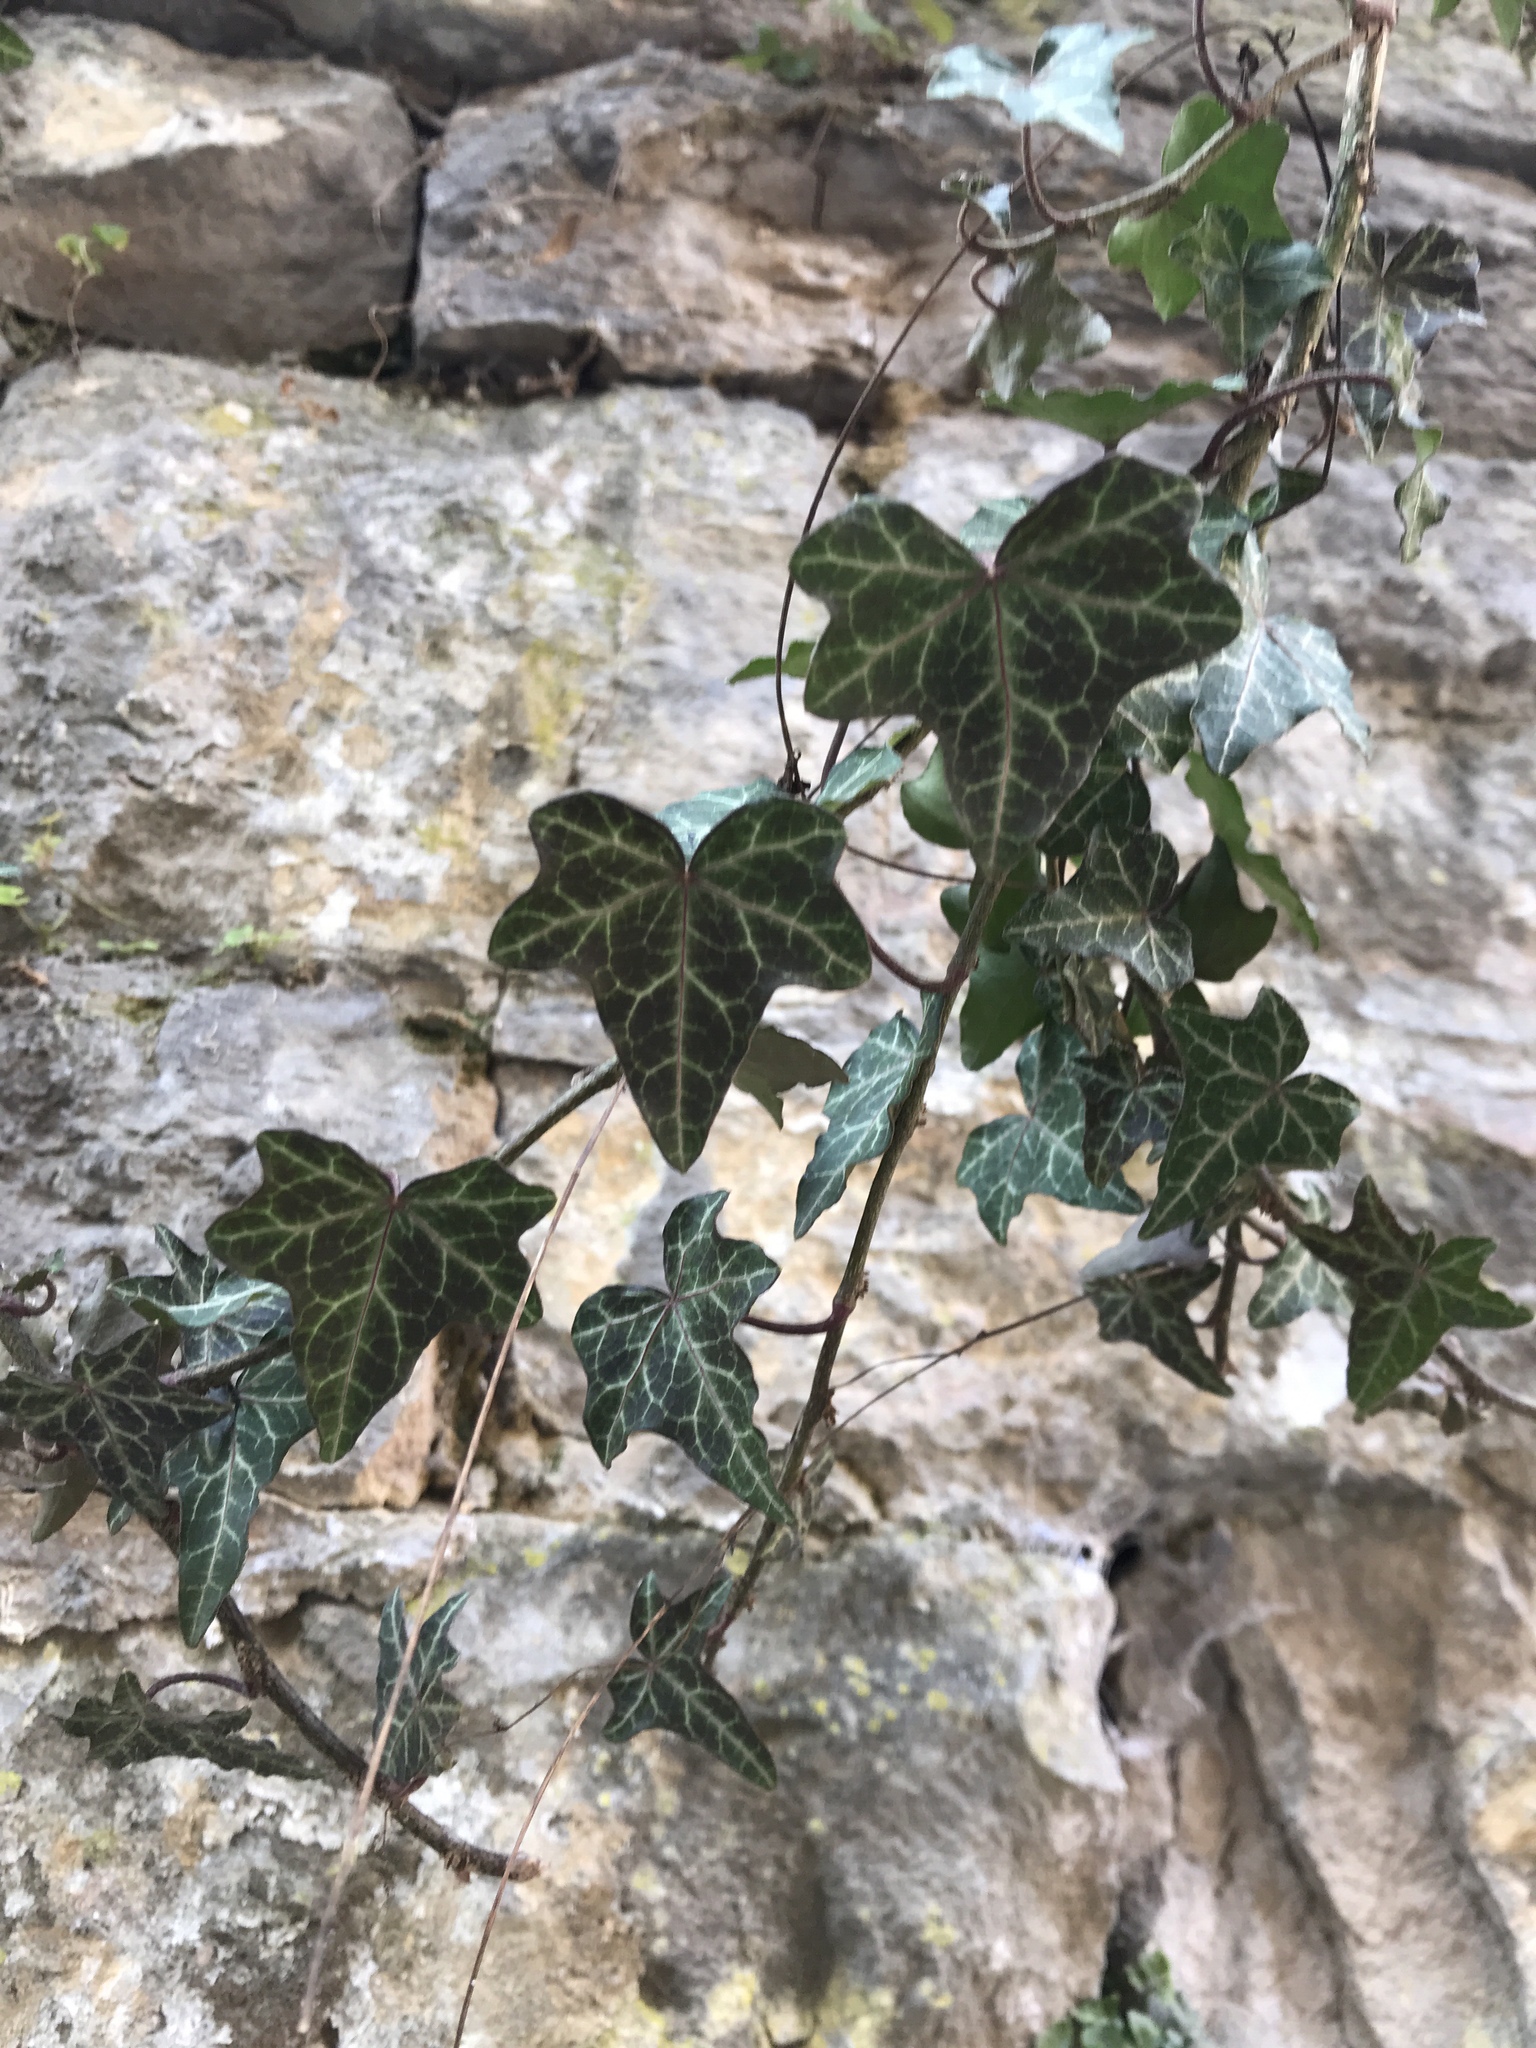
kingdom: Plantae
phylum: Tracheophyta
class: Magnoliopsida
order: Apiales
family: Araliaceae
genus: Hedera
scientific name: Hedera helix
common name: Ivy
